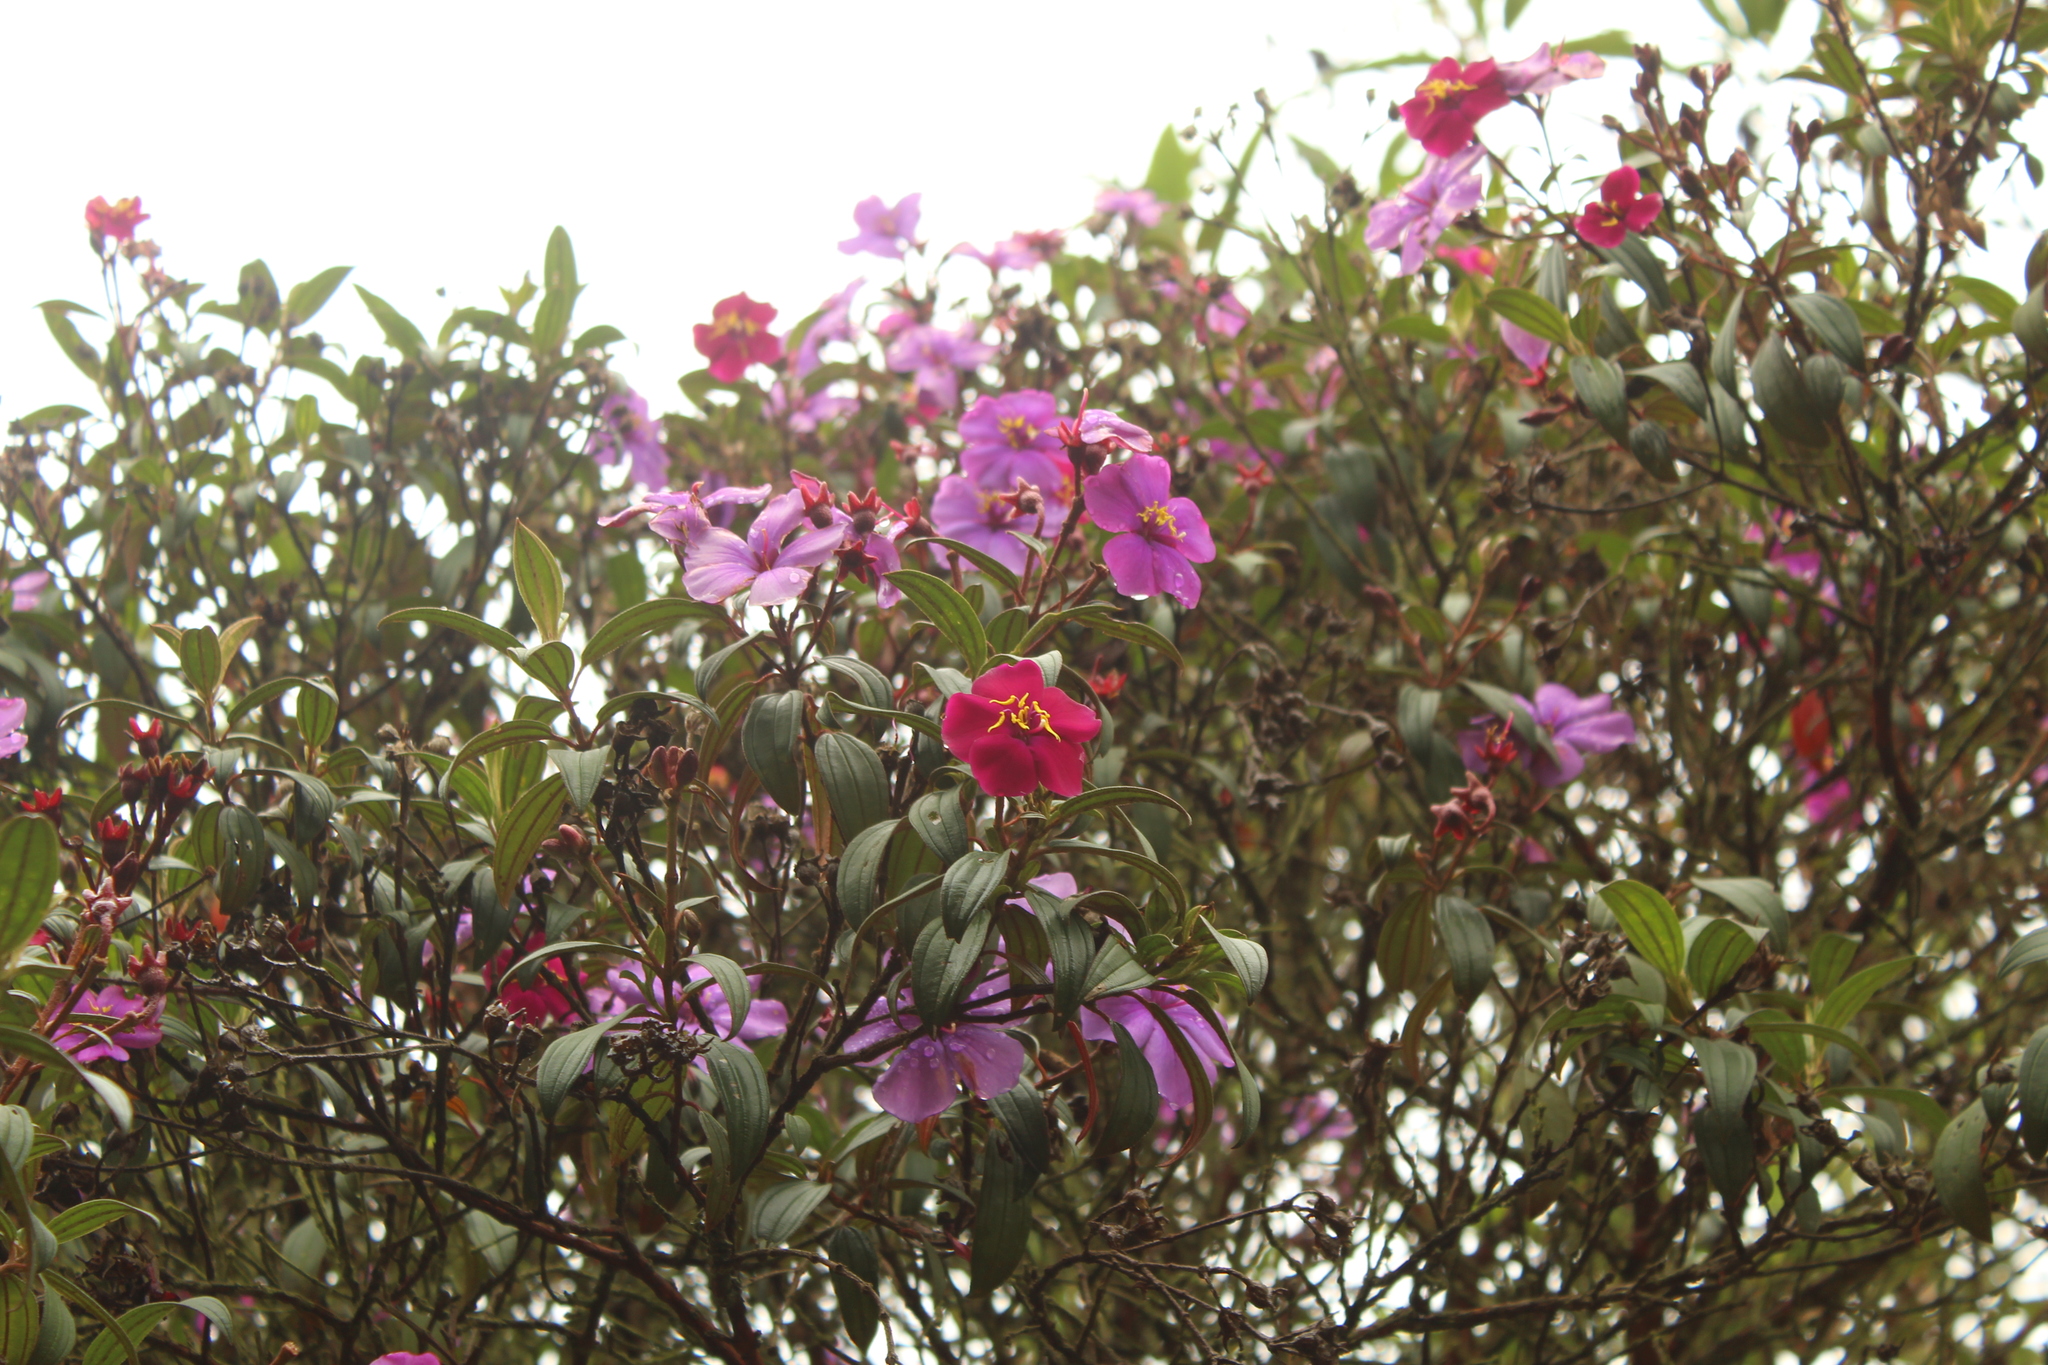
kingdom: Plantae
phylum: Tracheophyta
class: Magnoliopsida
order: Myrtales
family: Melastomataceae
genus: Andesanthus
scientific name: Andesanthus lepidotus
